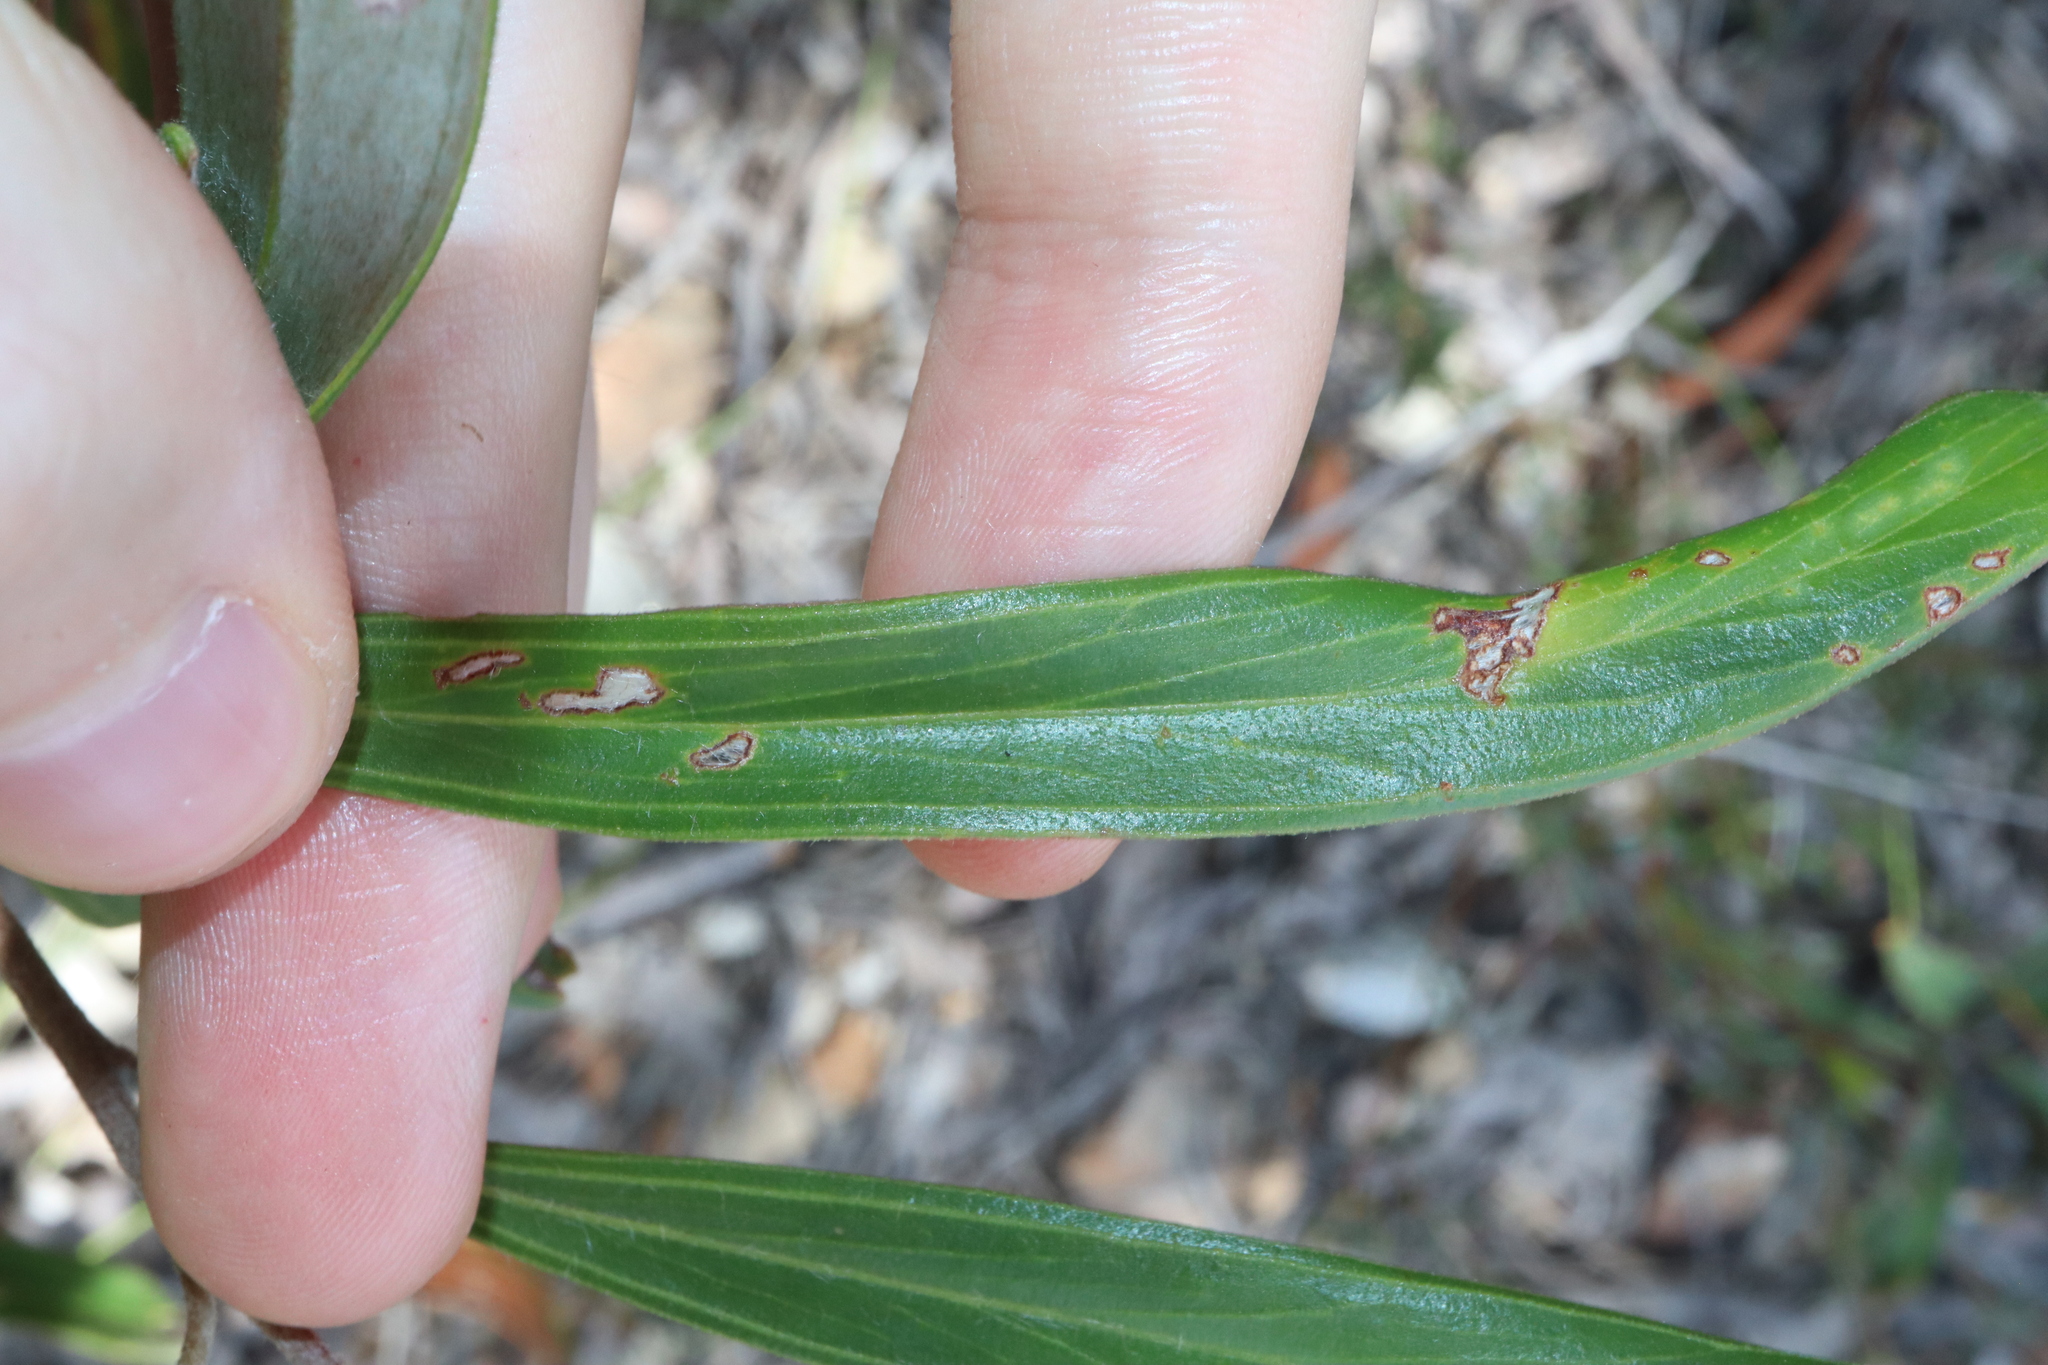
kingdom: Plantae
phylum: Tracheophyta
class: Magnoliopsida
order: Proteales
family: Proteaceae
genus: Grevillea
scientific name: Grevillea oleoides
